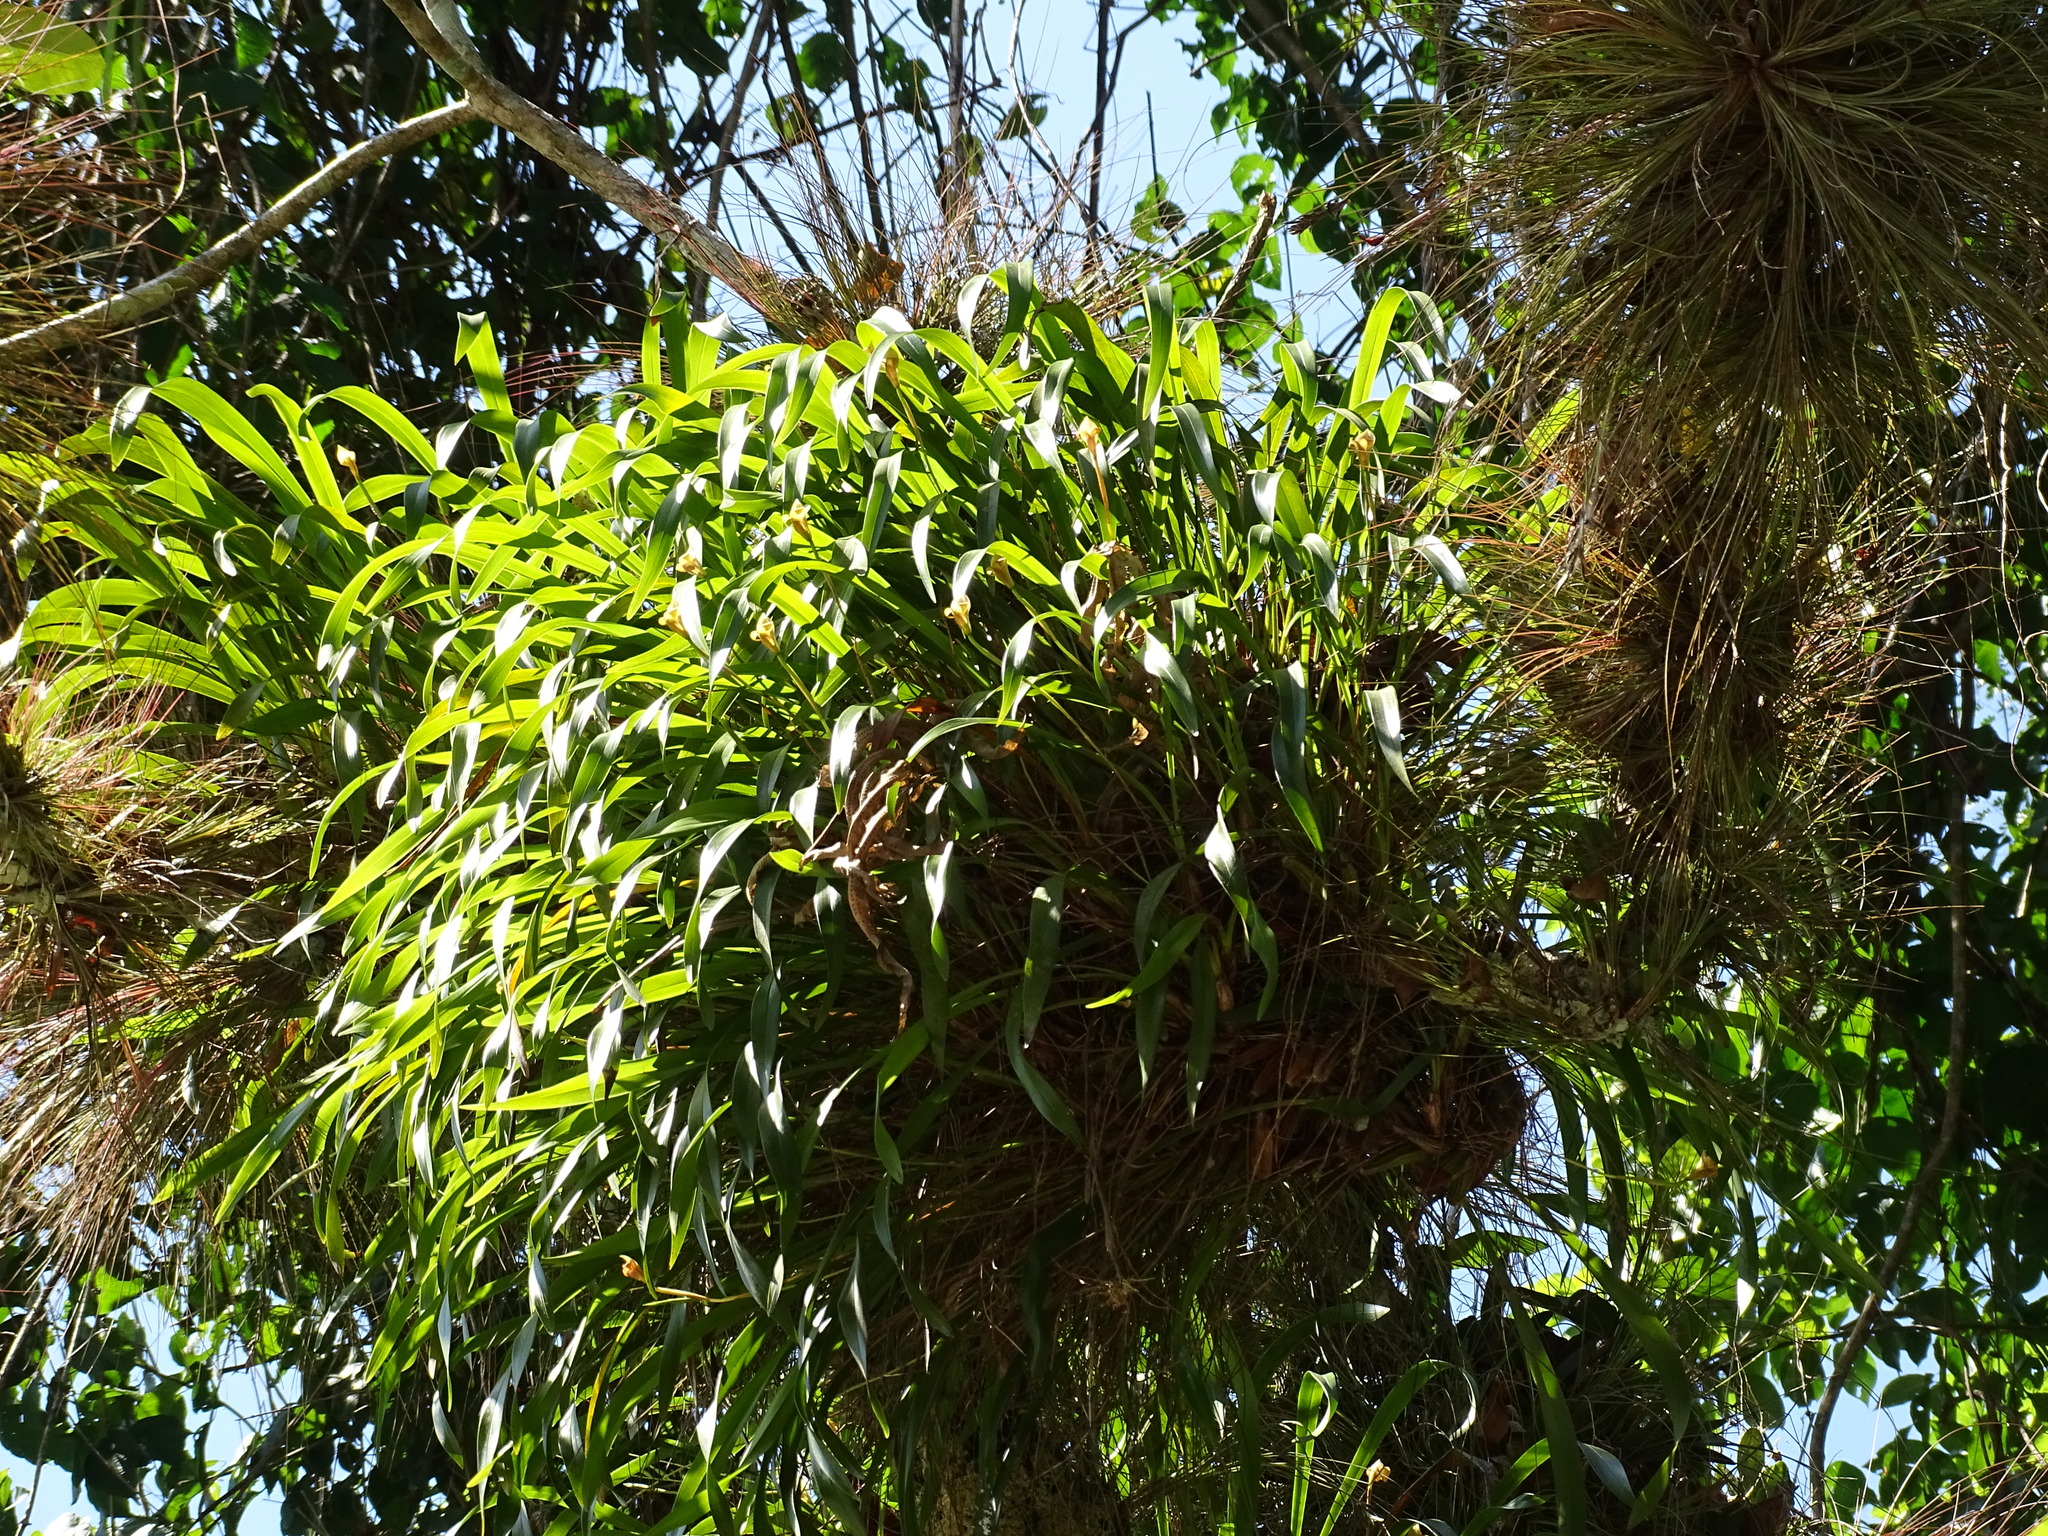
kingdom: Plantae
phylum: Tracheophyta
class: Liliopsida
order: Asparagales
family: Orchidaceae
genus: Maxillaria
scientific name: Maxillaria egertoniana
